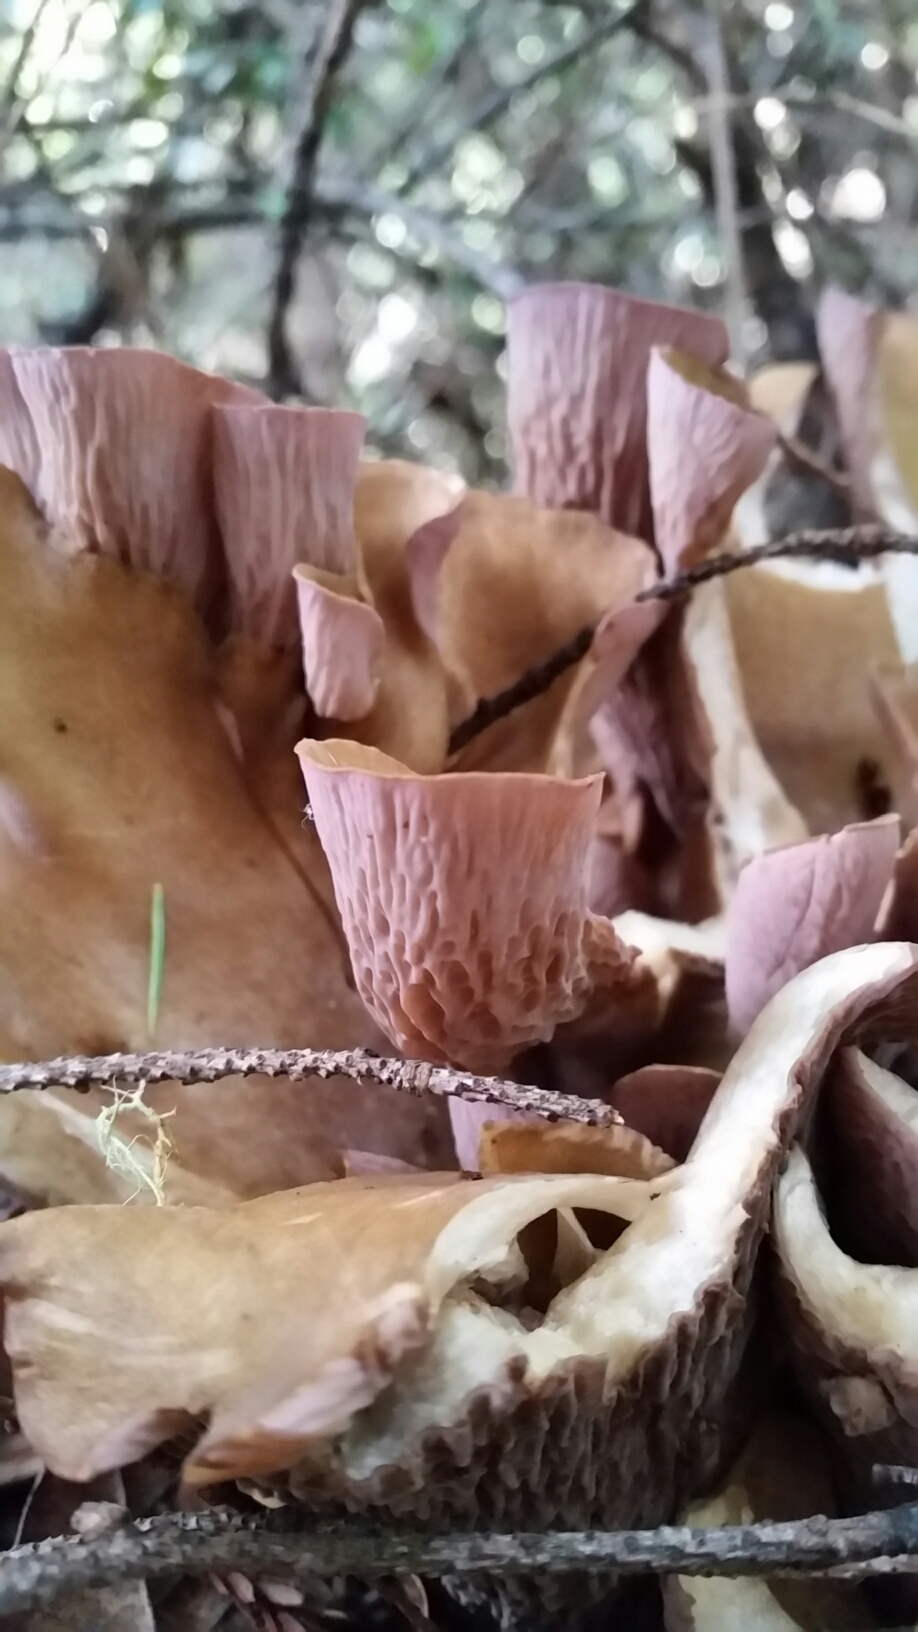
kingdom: Fungi
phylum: Basidiomycota
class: Agaricomycetes
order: Gomphales
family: Gomphaceae
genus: Gomphus
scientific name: Gomphus clavatus
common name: Pig's ear
